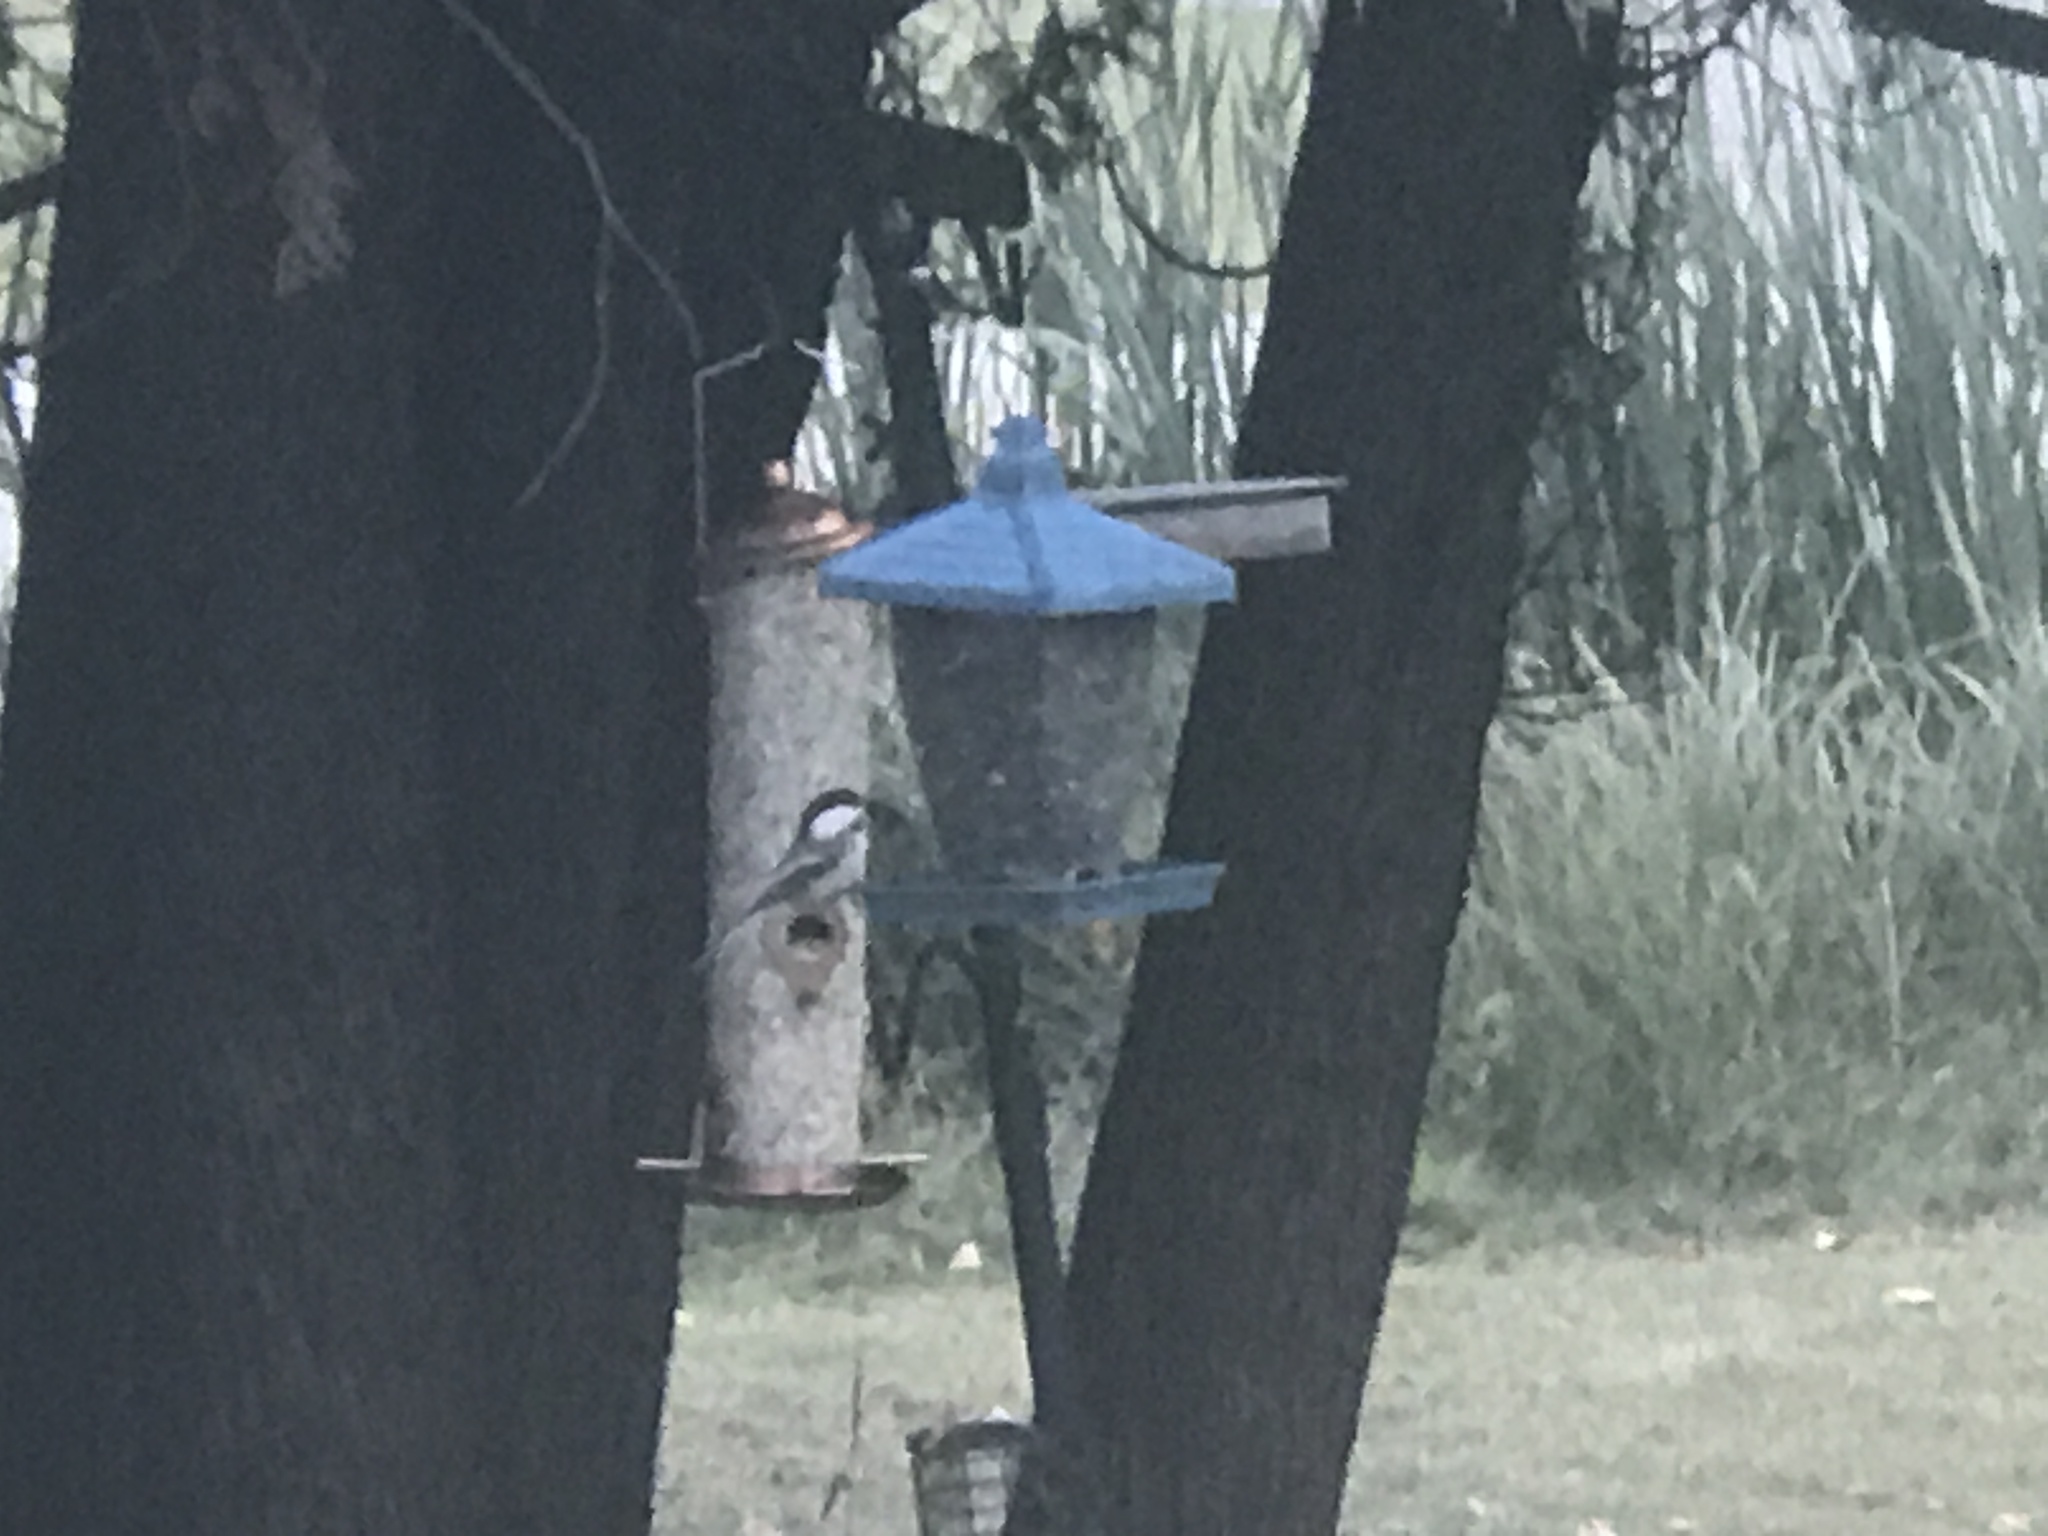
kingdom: Animalia
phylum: Chordata
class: Aves
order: Passeriformes
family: Paridae
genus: Poecile
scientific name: Poecile atricapillus
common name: Black-capped chickadee
